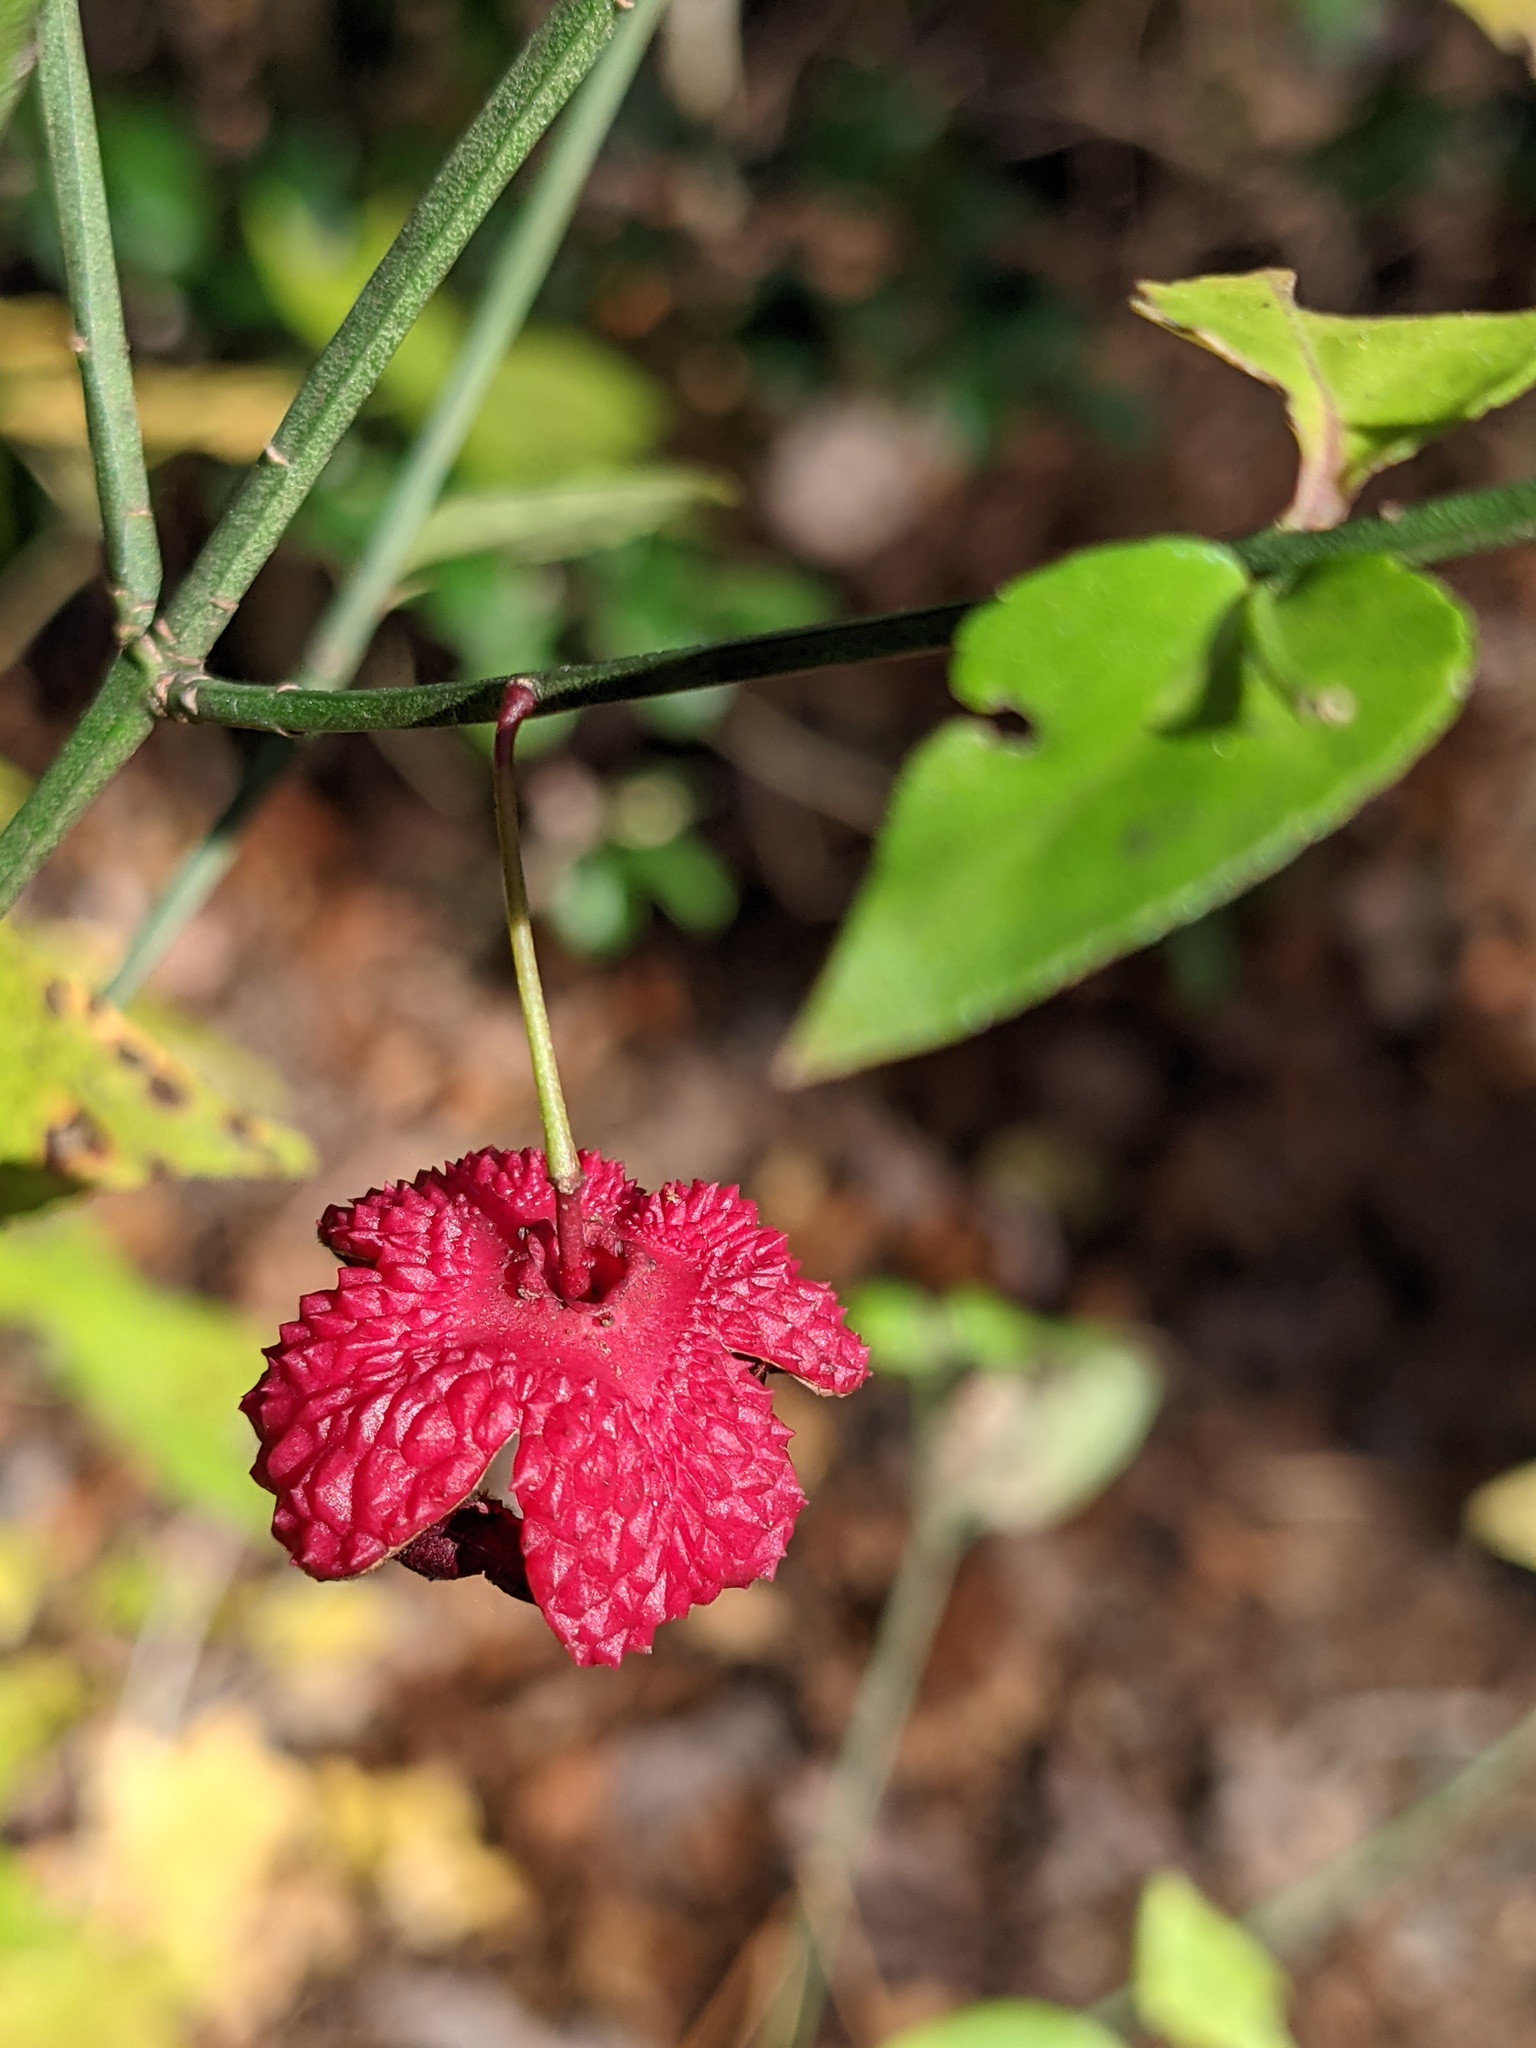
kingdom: Plantae
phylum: Tracheophyta
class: Magnoliopsida
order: Celastrales
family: Celastraceae
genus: Euonymus
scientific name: Euonymus americanus
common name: Bursting-heart
